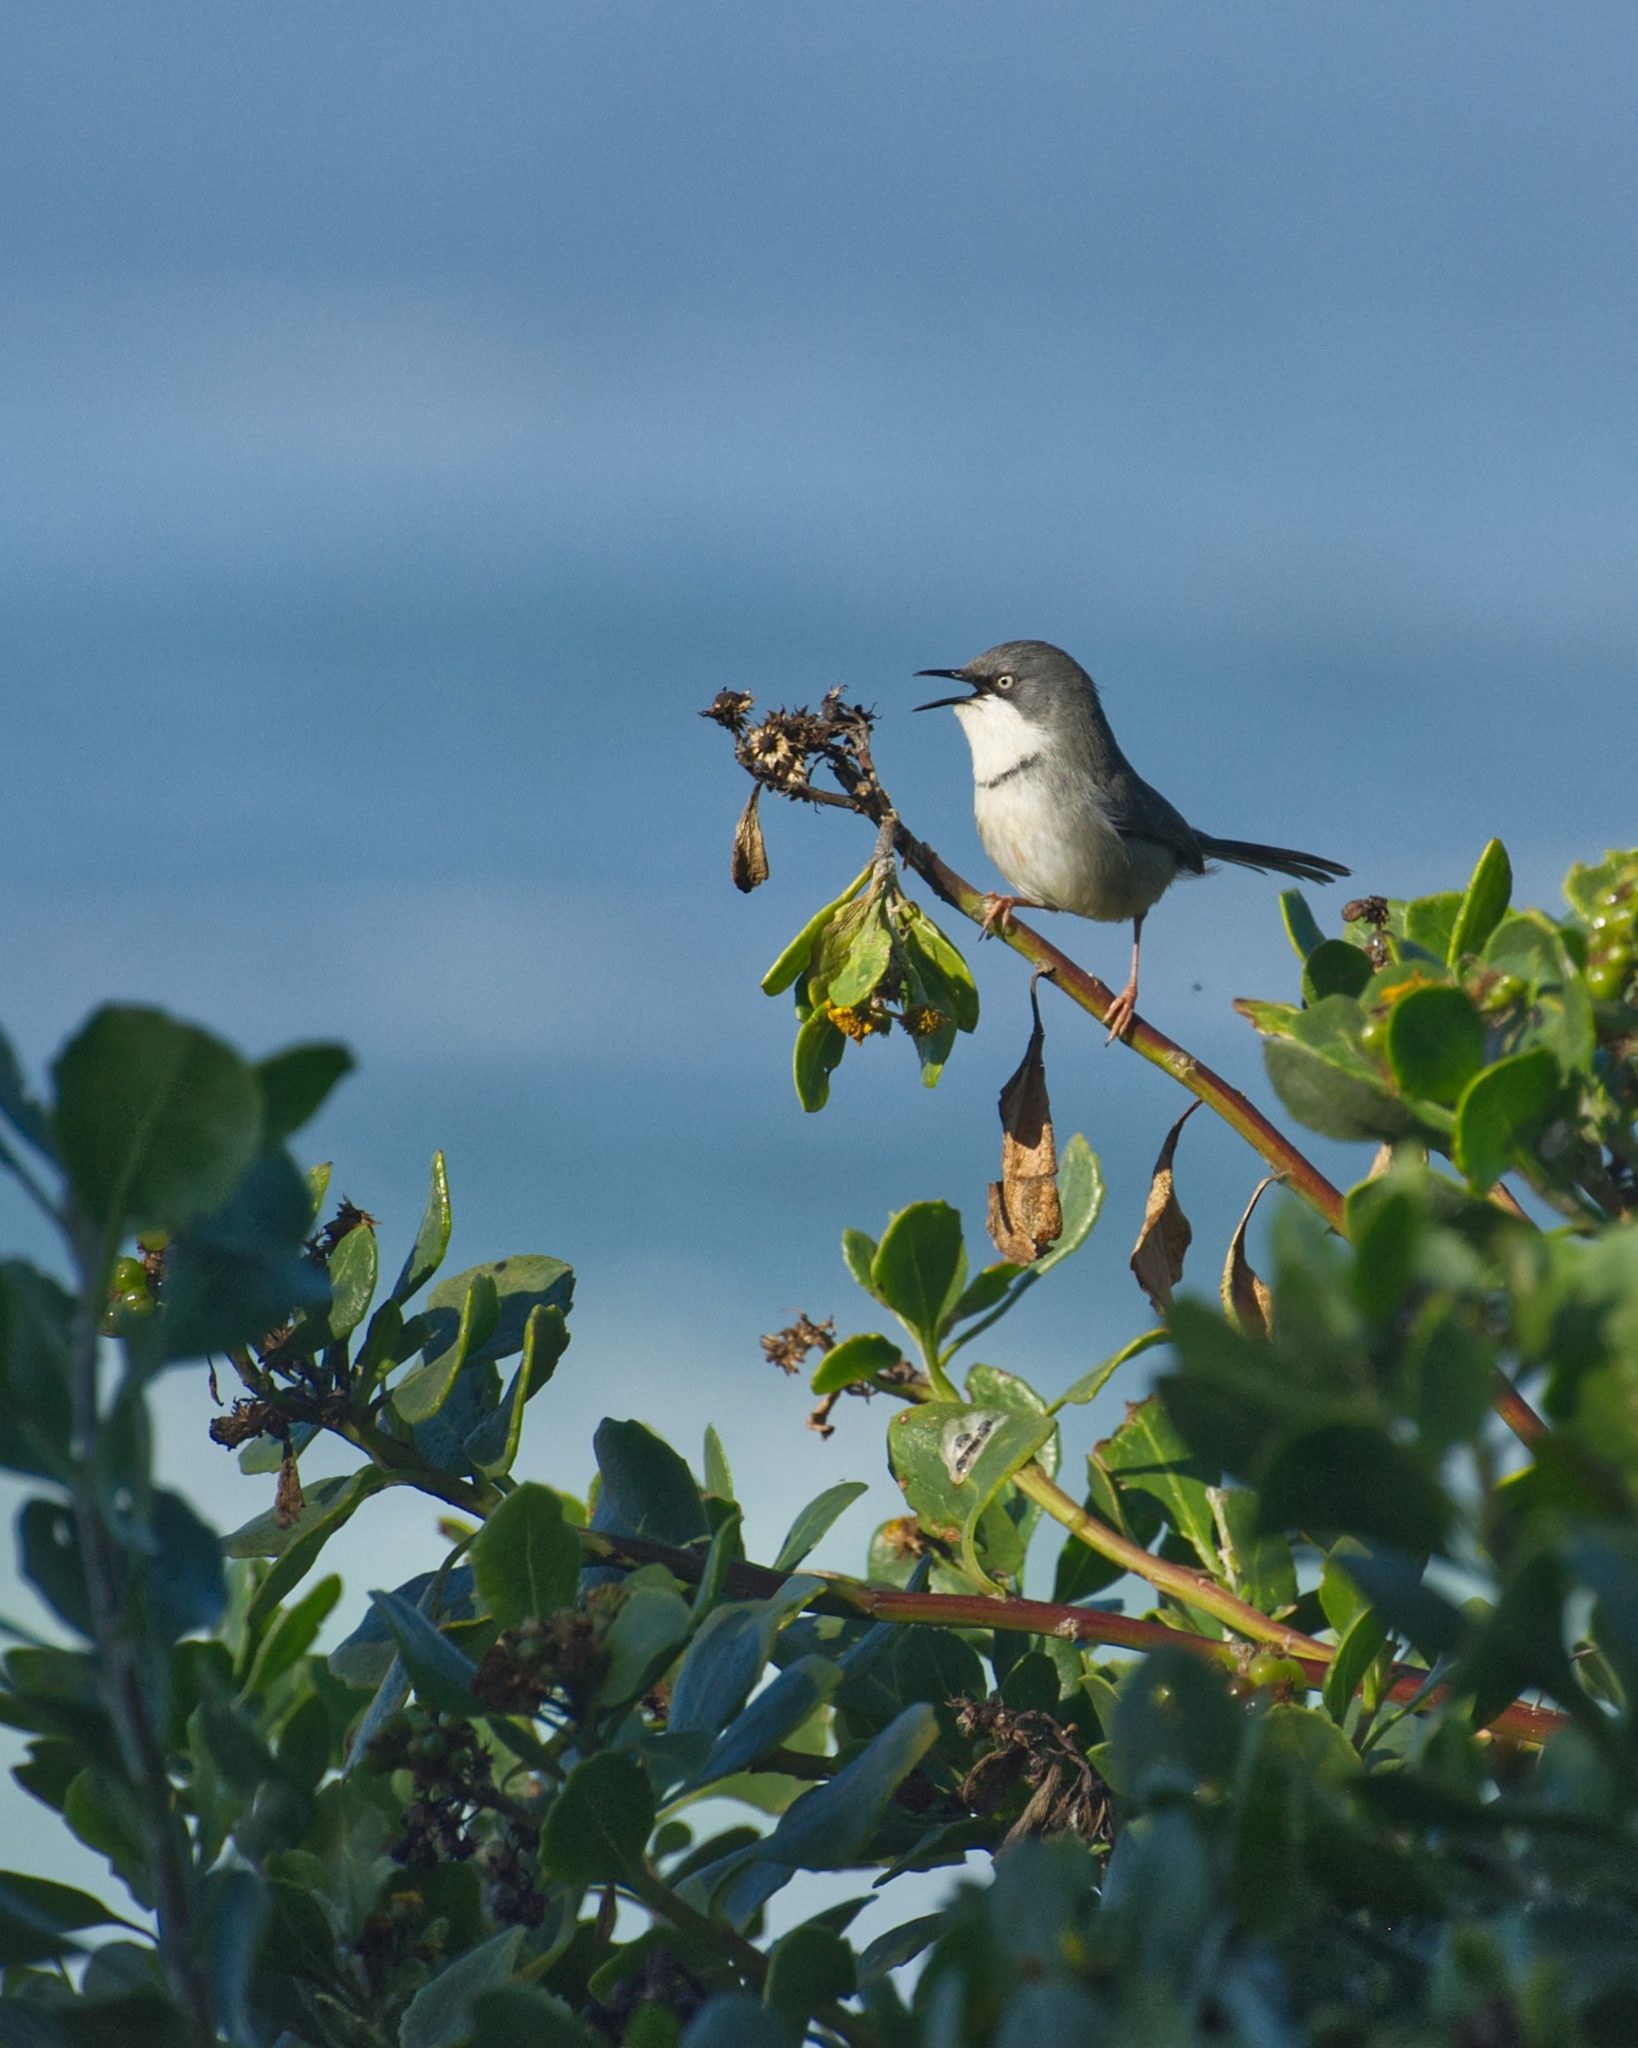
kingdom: Animalia
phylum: Chordata
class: Aves
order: Passeriformes
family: Cisticolidae
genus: Apalis
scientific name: Apalis thoracica
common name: Bar-throated apalis
